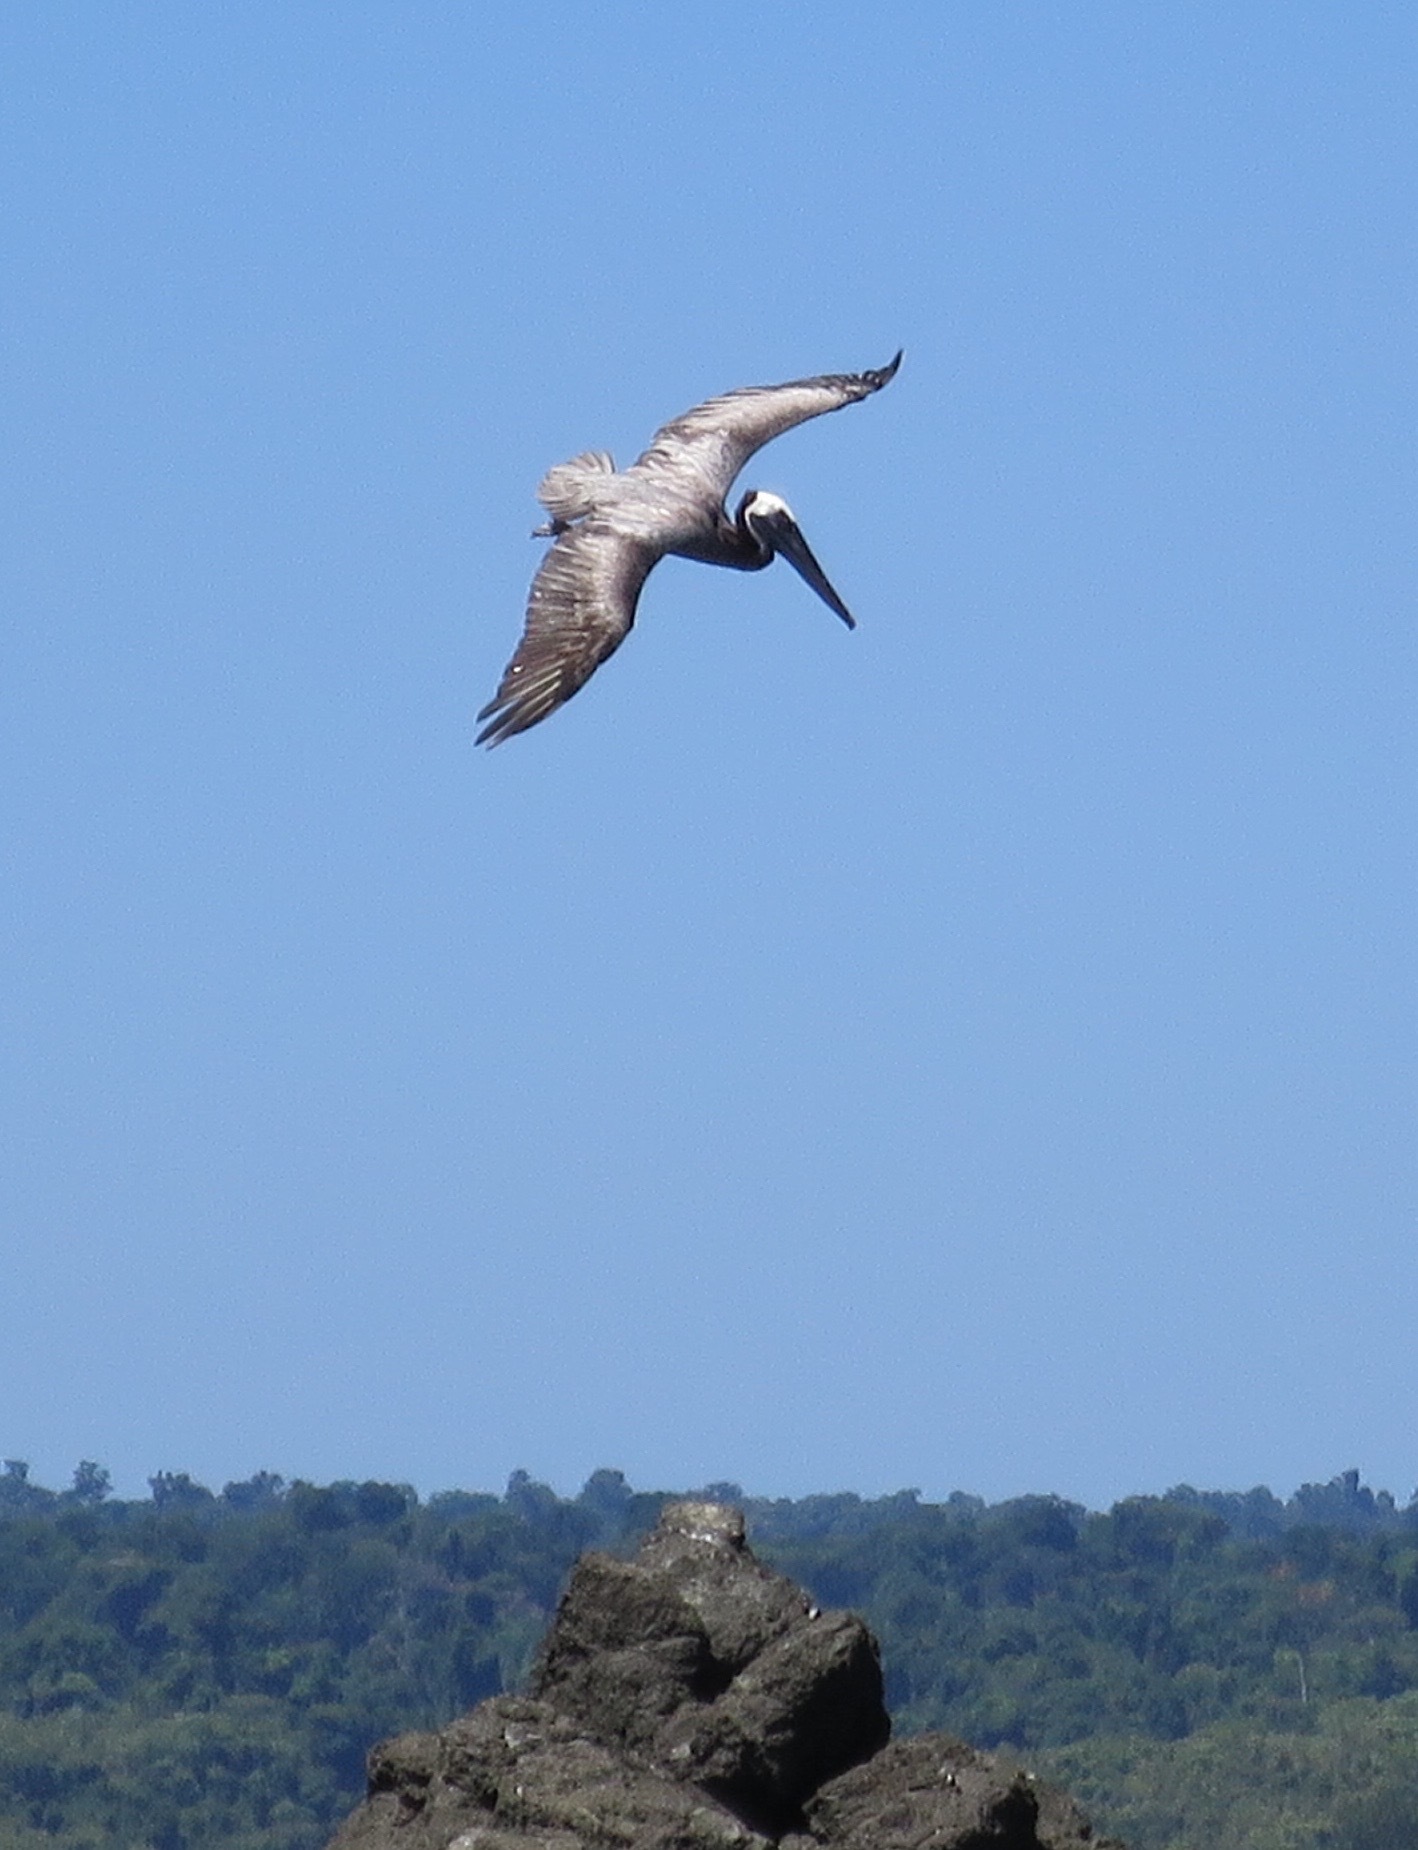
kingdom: Animalia
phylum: Chordata
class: Aves
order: Pelecaniformes
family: Pelecanidae
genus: Pelecanus
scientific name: Pelecanus occidentalis
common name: Brown pelican
